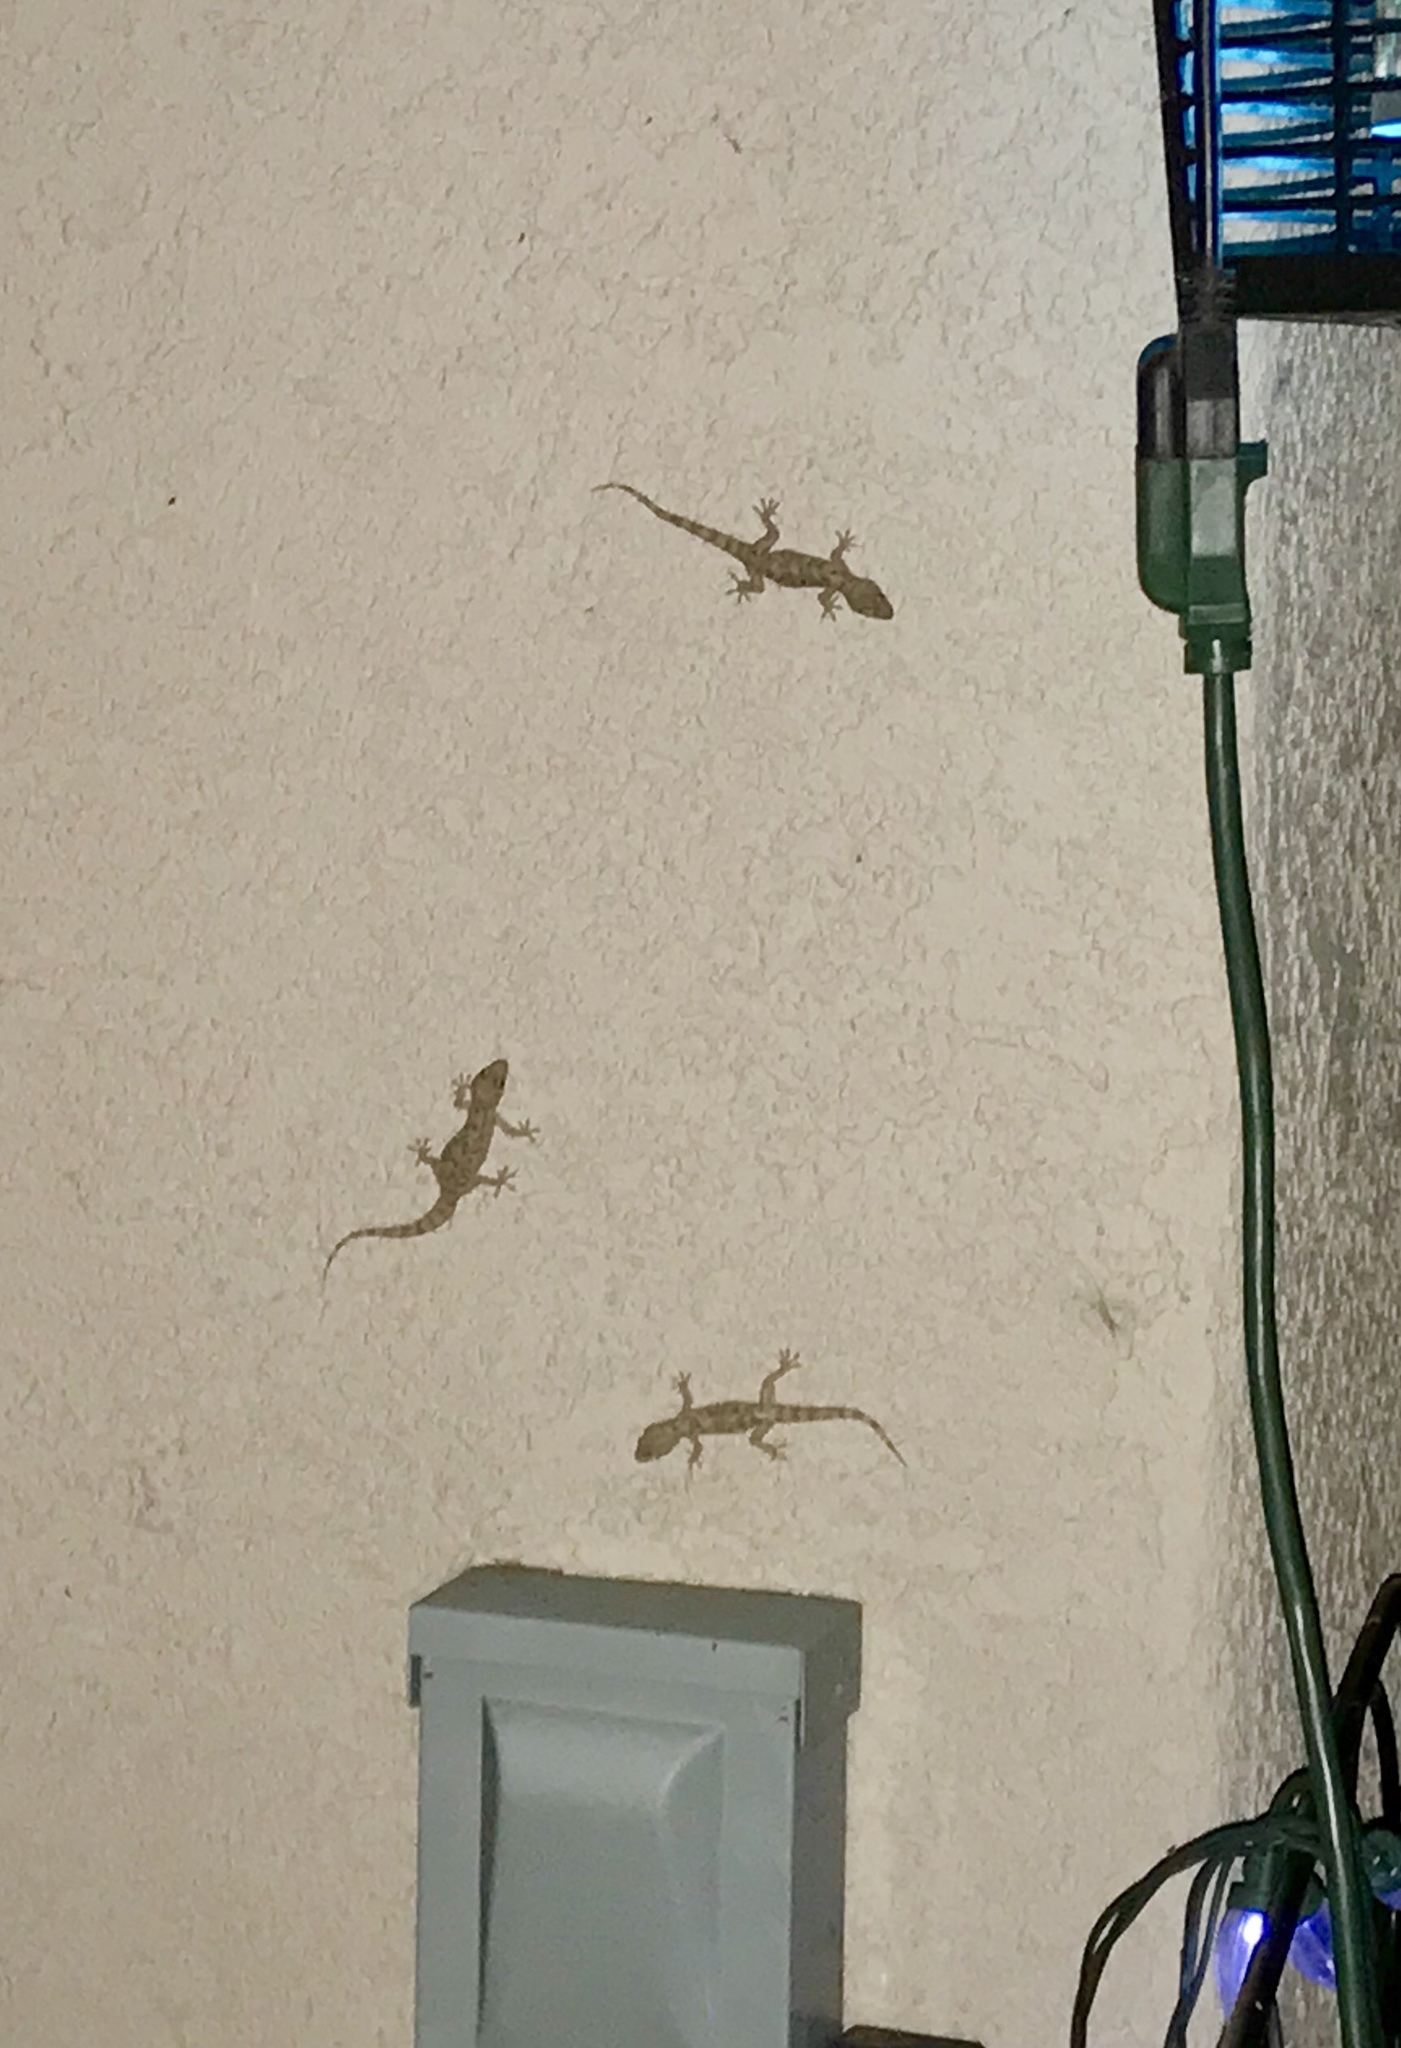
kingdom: Animalia
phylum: Chordata
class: Squamata
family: Gekkonidae
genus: Hemidactylus
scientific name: Hemidactylus turcicus
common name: Turkish gecko
